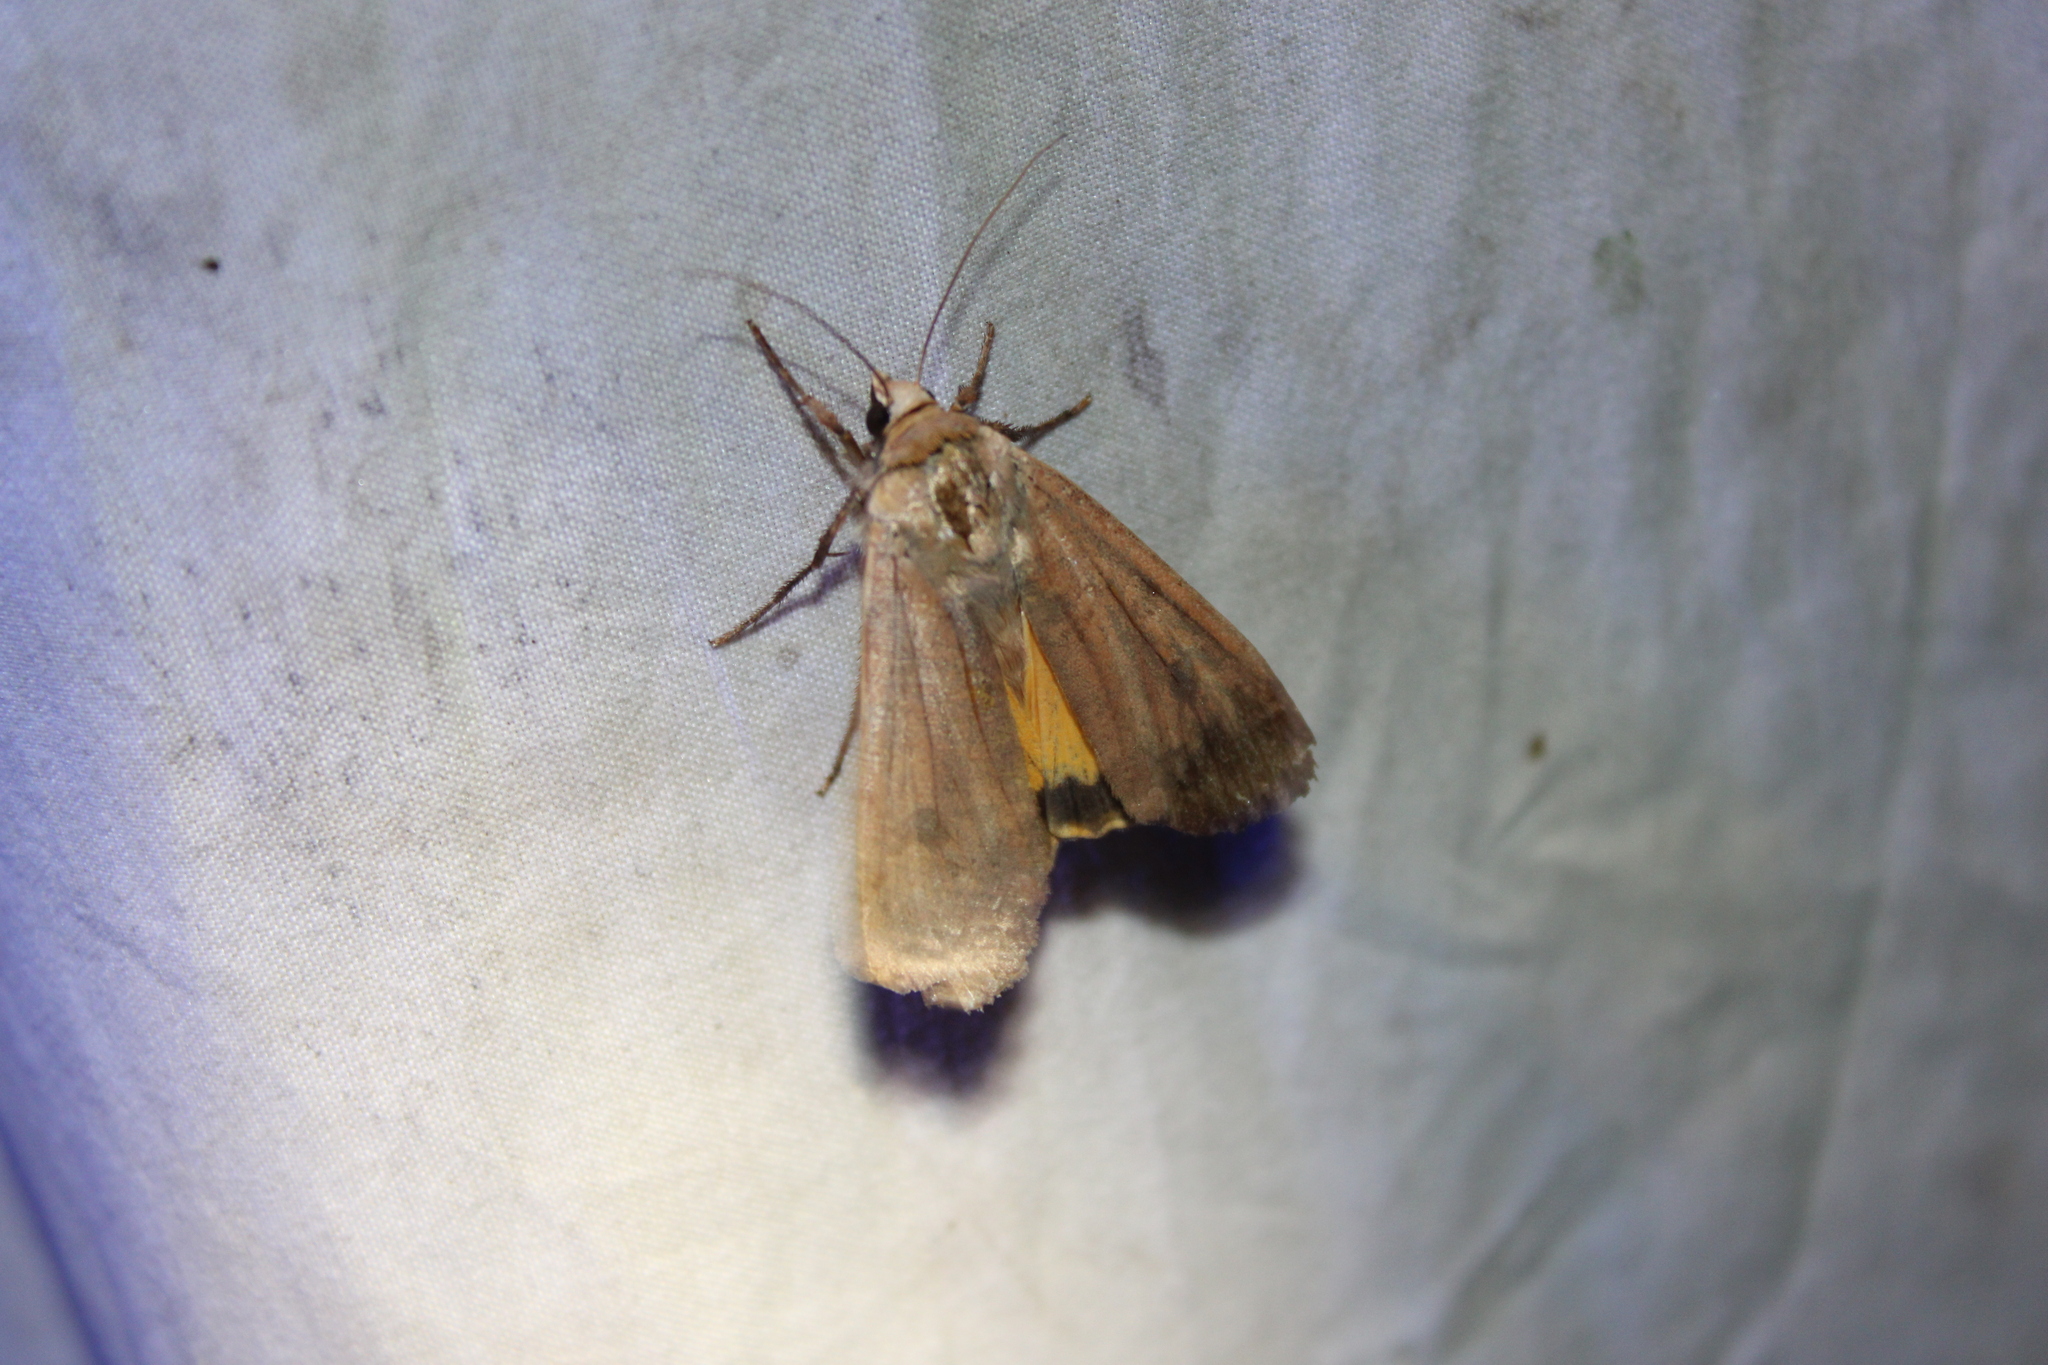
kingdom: Animalia
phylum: Arthropoda
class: Insecta
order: Lepidoptera
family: Noctuidae
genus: Noctua
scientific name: Noctua pronuba
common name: Large yellow underwing
